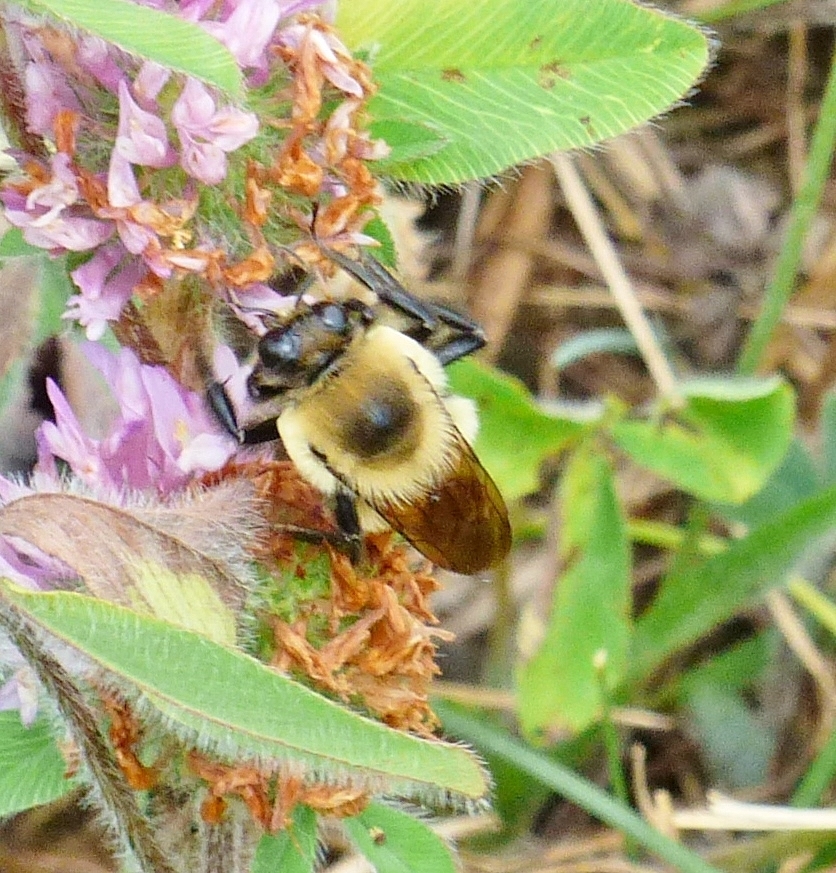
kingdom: Animalia
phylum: Arthropoda
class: Insecta
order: Hymenoptera
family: Apidae
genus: Bombus
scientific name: Bombus griseocollis
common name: Brown-belted bumble bee
